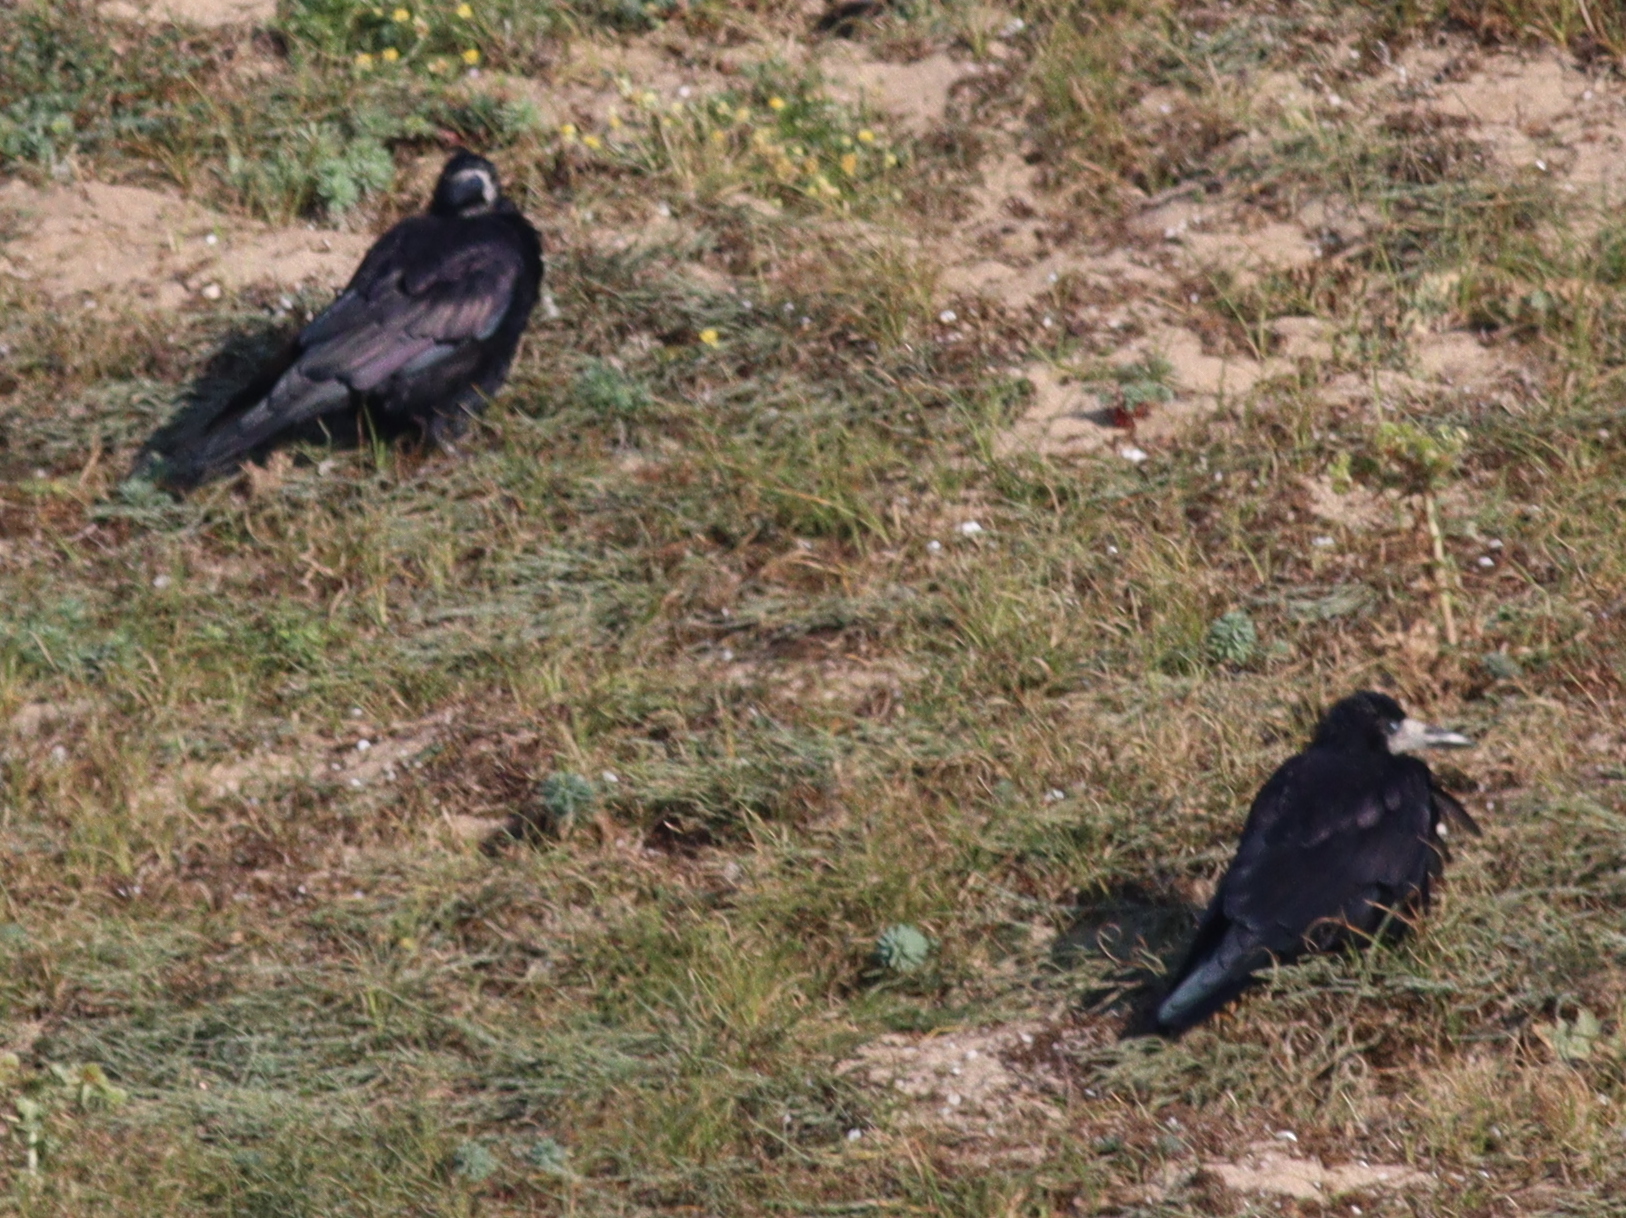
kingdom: Animalia
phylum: Chordata
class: Aves
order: Passeriformes
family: Corvidae
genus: Corvus
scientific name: Corvus frugilegus
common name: Rook
